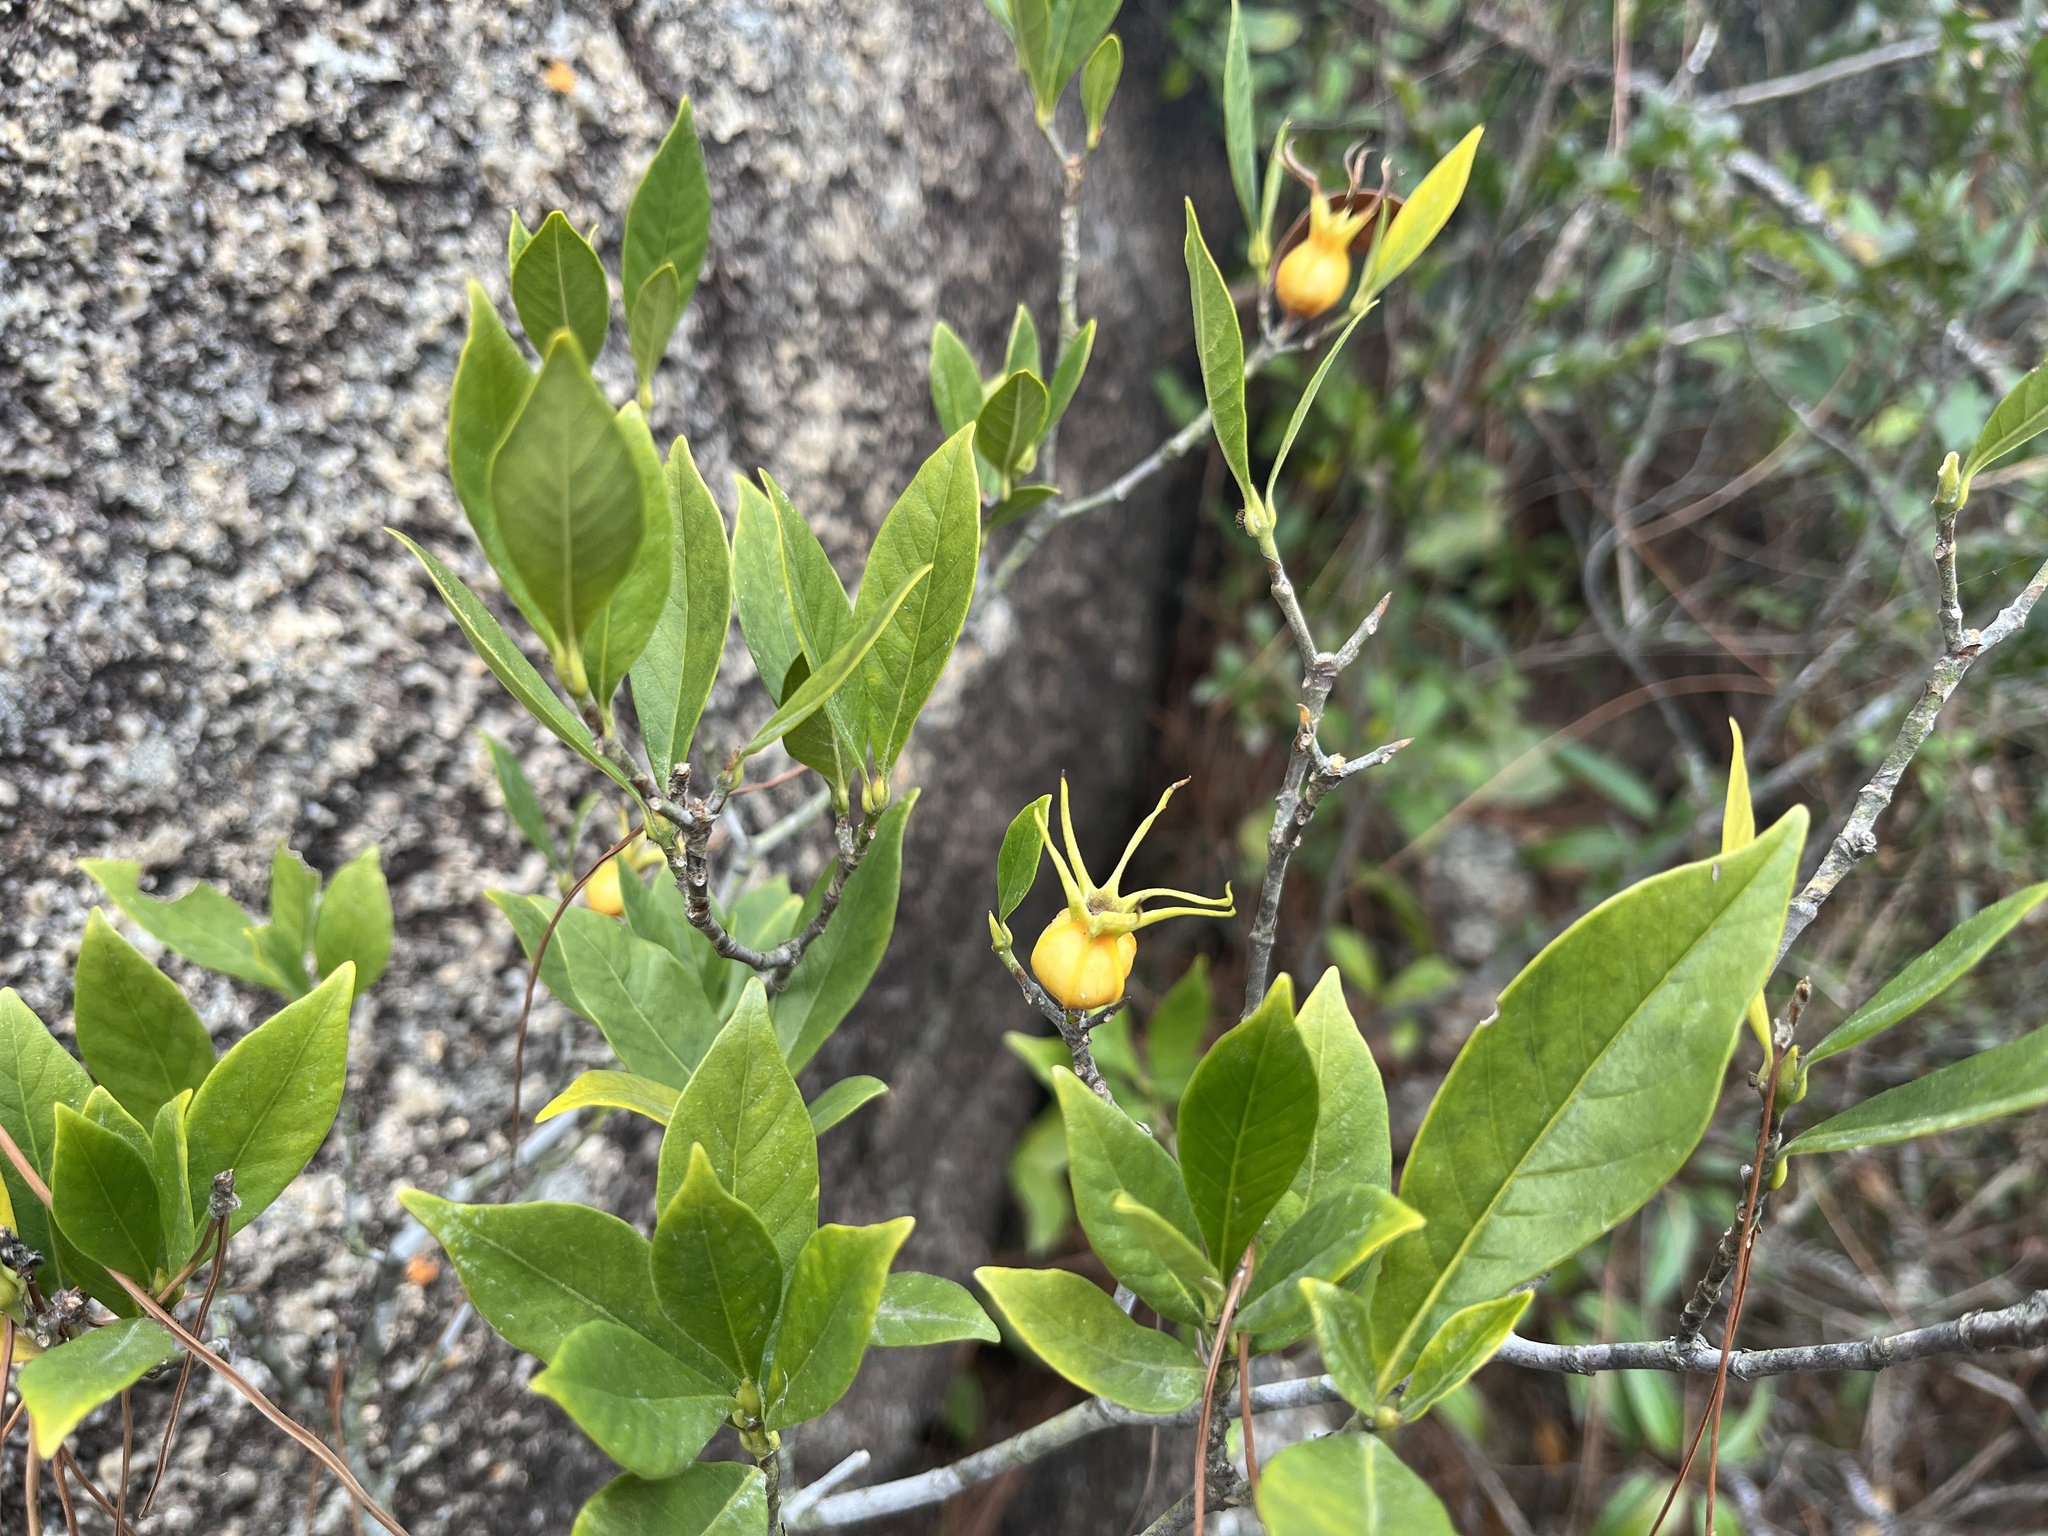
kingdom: Plantae
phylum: Tracheophyta
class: Magnoliopsida
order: Gentianales
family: Rubiaceae
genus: Gardenia
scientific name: Gardenia jasminoides
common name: Cape-jasmine
